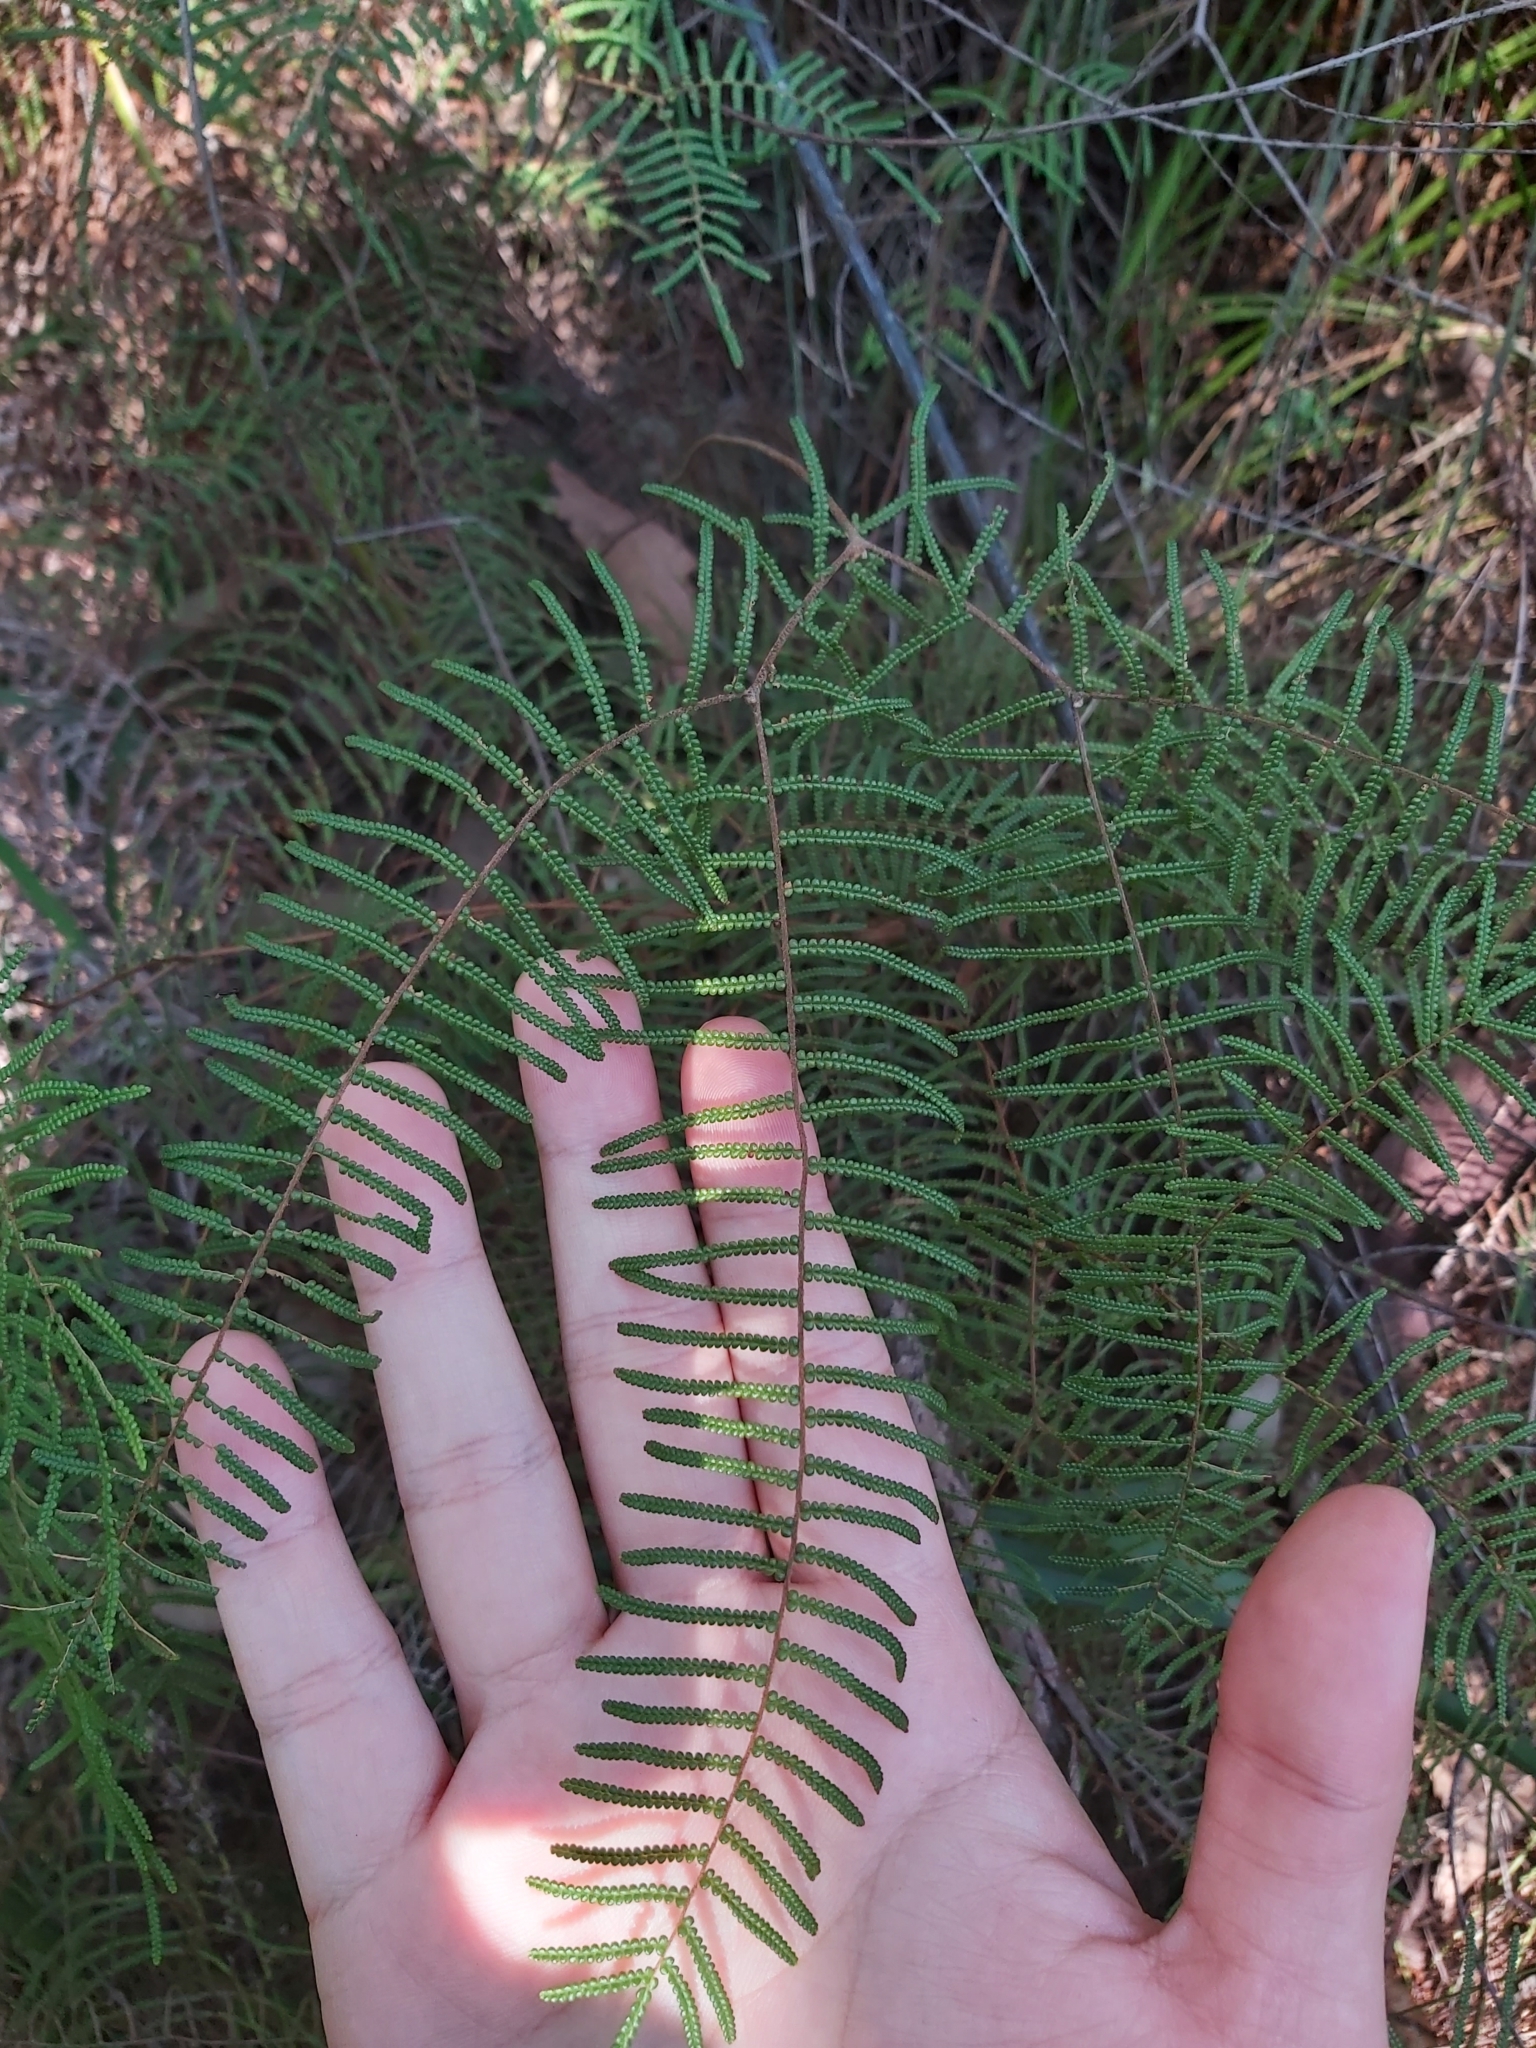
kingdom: Plantae
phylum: Tracheophyta
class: Polypodiopsida
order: Gleicheniales
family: Gleicheniaceae
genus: Gleichenia
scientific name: Gleichenia dicarpa
